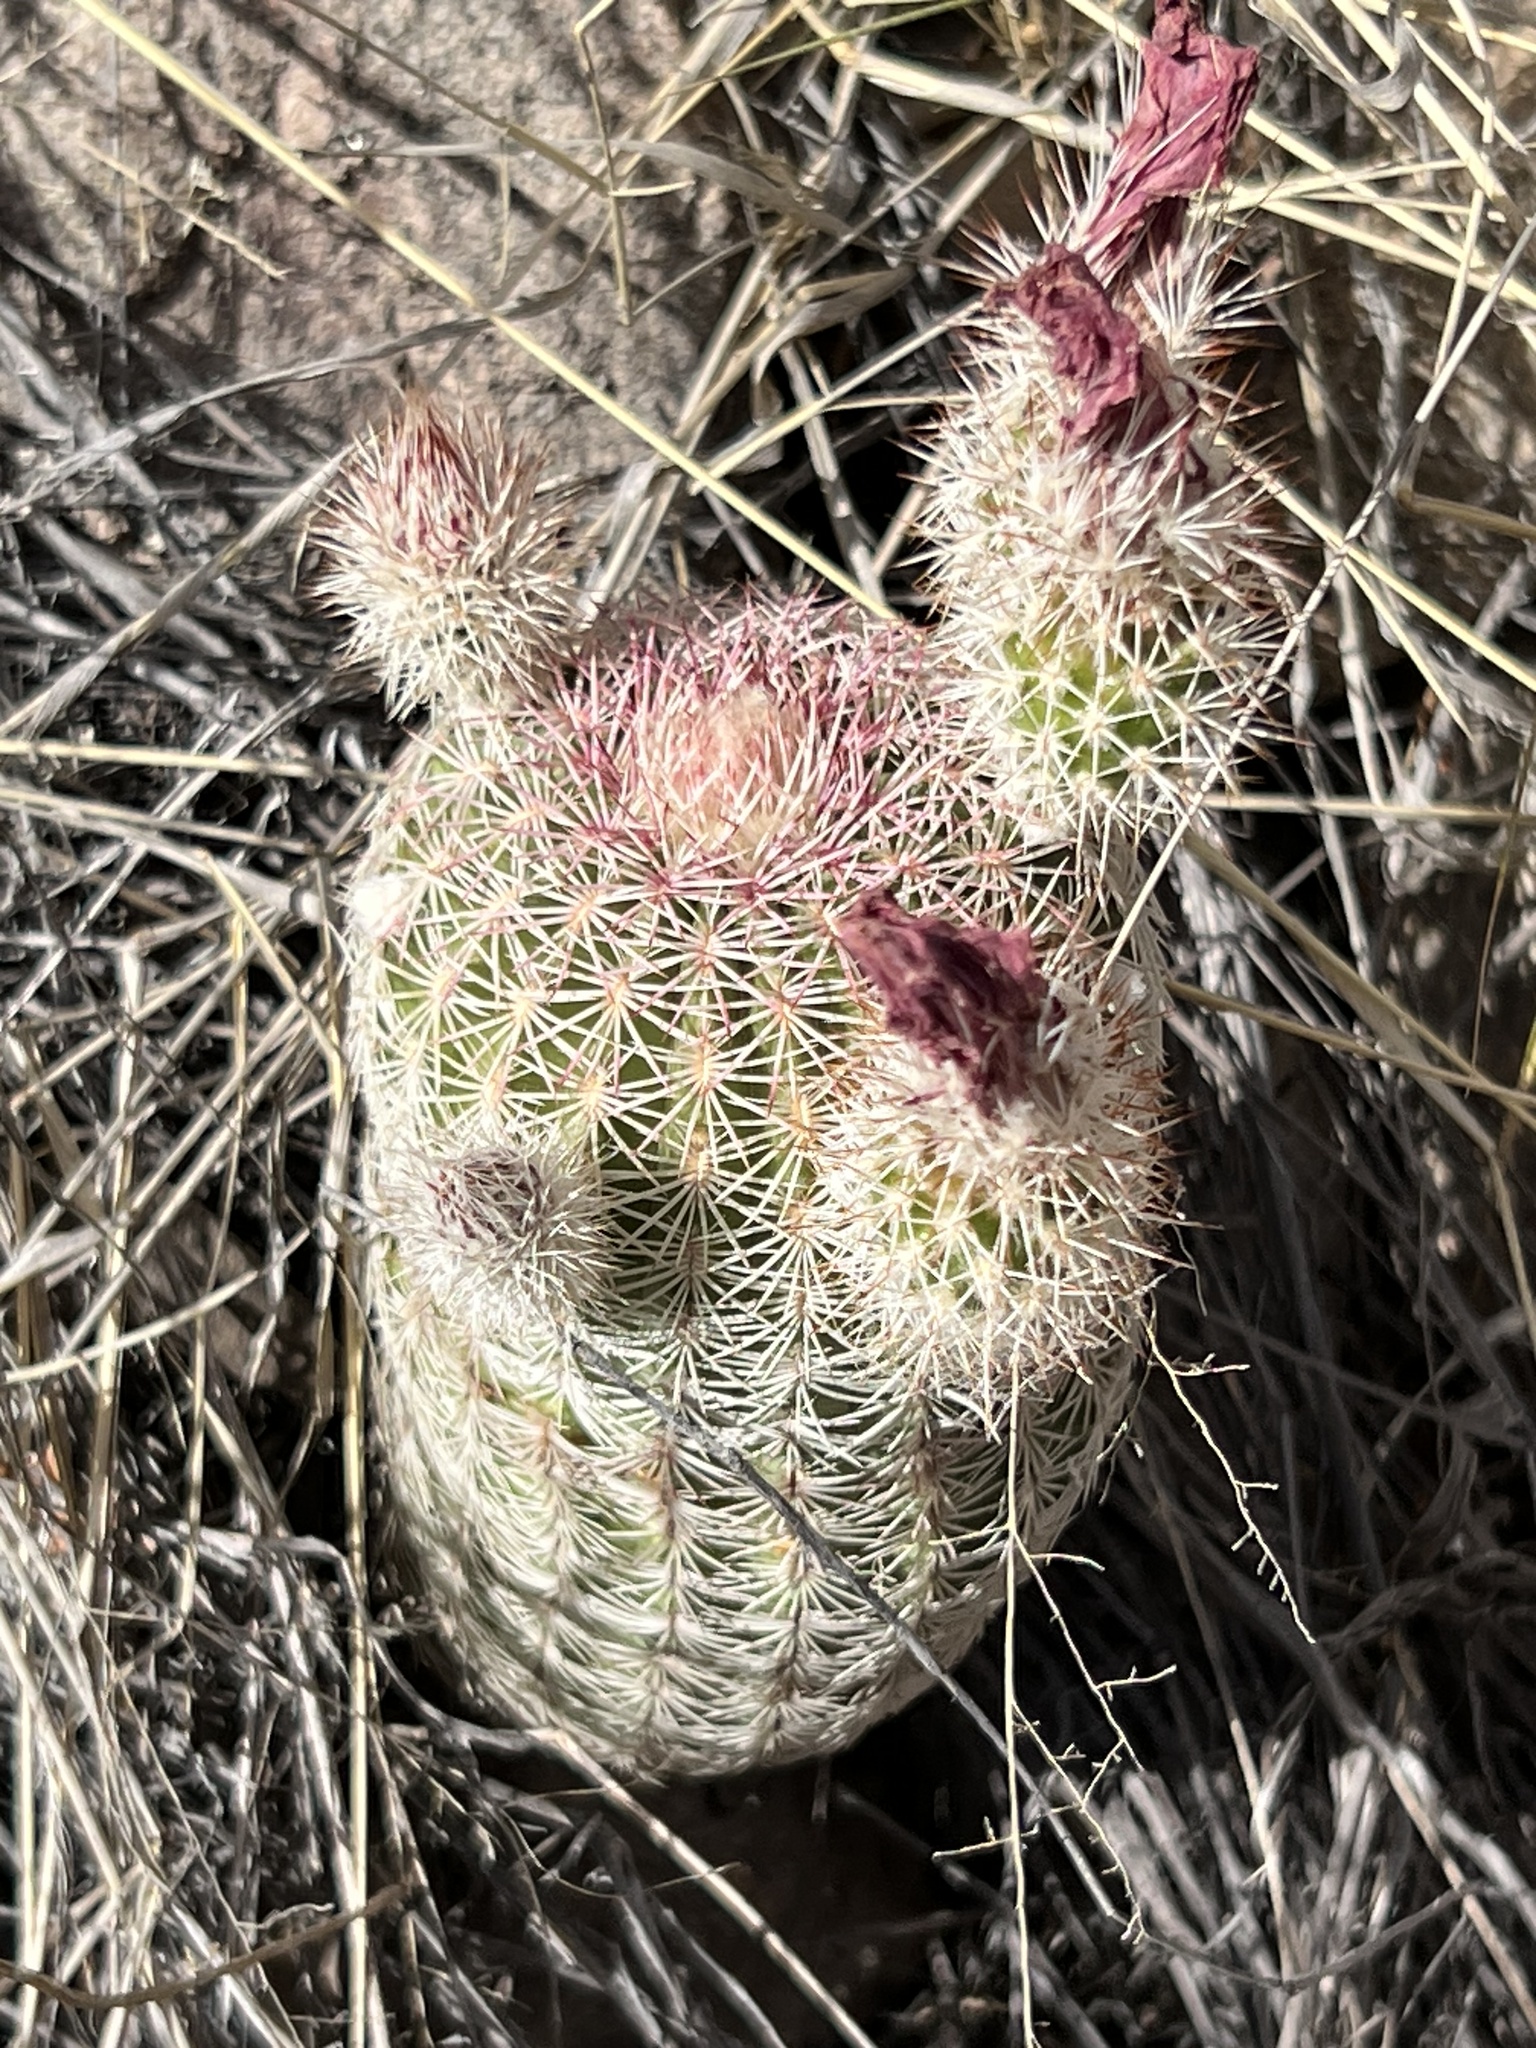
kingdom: Plantae
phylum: Tracheophyta
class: Magnoliopsida
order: Caryophyllales
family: Cactaceae
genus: Echinocereus
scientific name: Echinocereus rigidissimus
